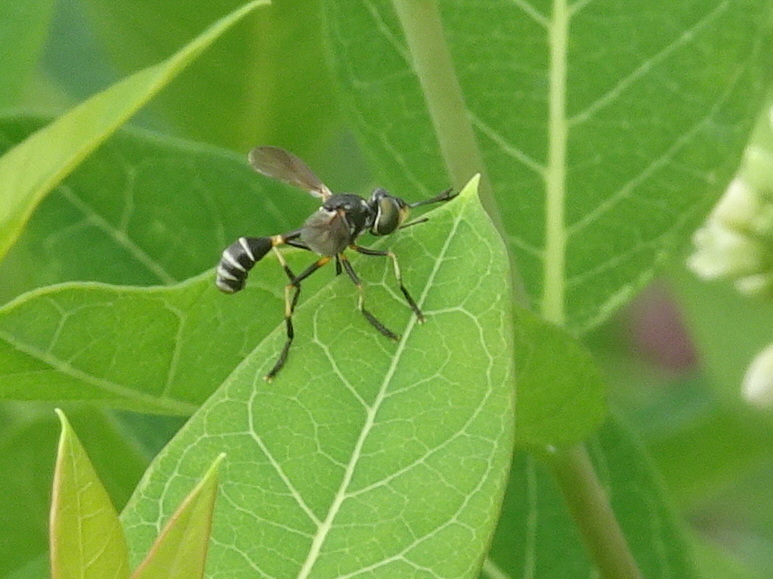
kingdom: Animalia
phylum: Arthropoda
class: Insecta
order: Diptera
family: Conopidae
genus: Physoconops
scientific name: Physoconops obscuripennis
